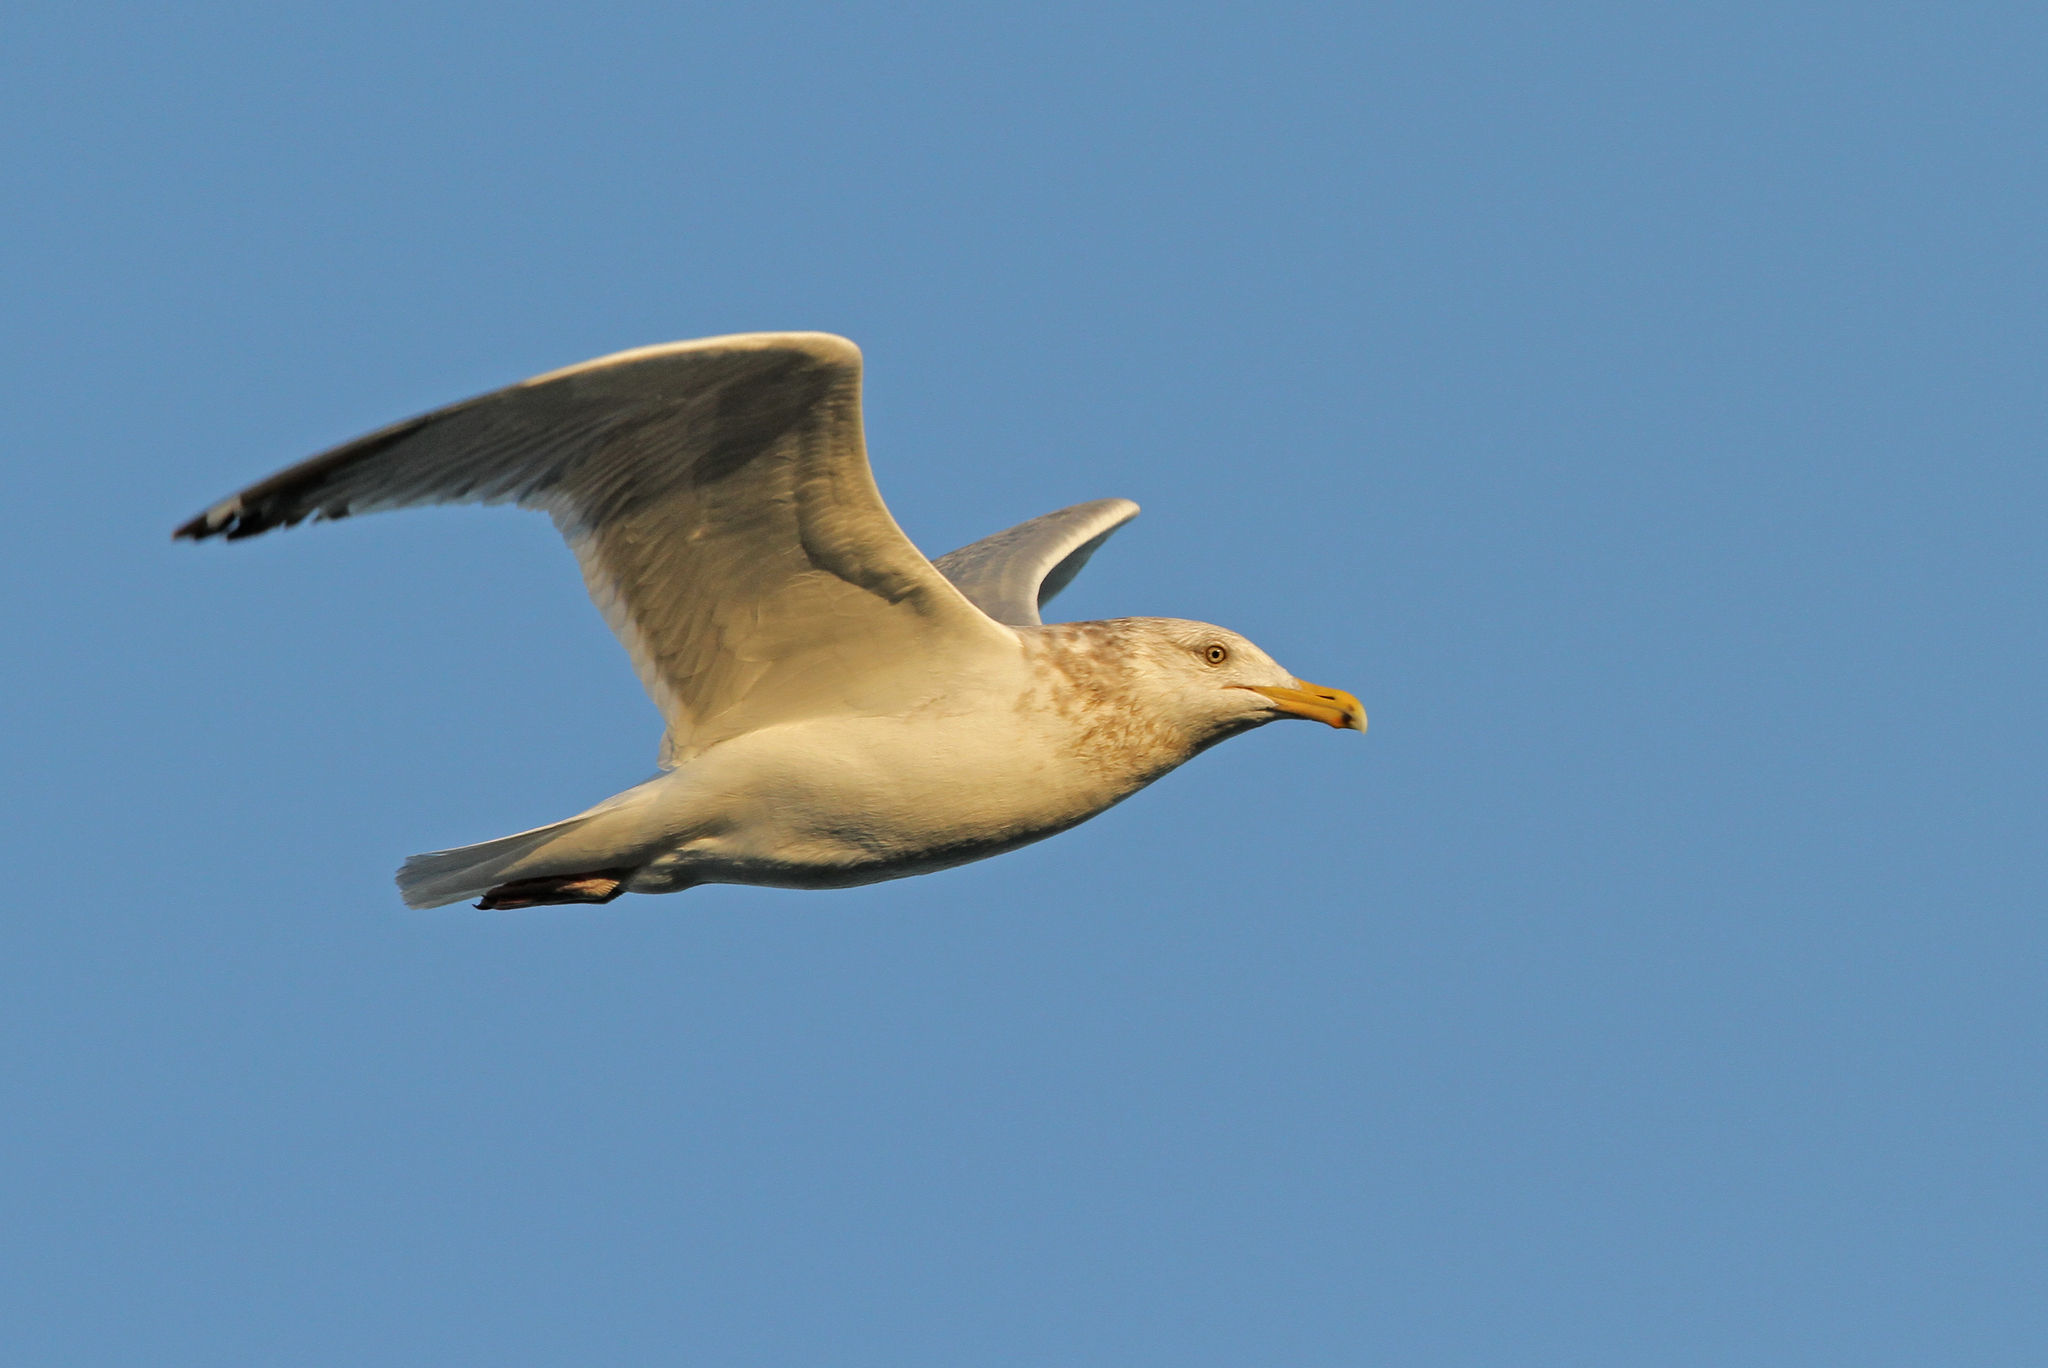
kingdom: Animalia
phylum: Chordata
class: Aves
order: Charadriiformes
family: Laridae
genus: Larus
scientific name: Larus argentatus
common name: Herring gull
